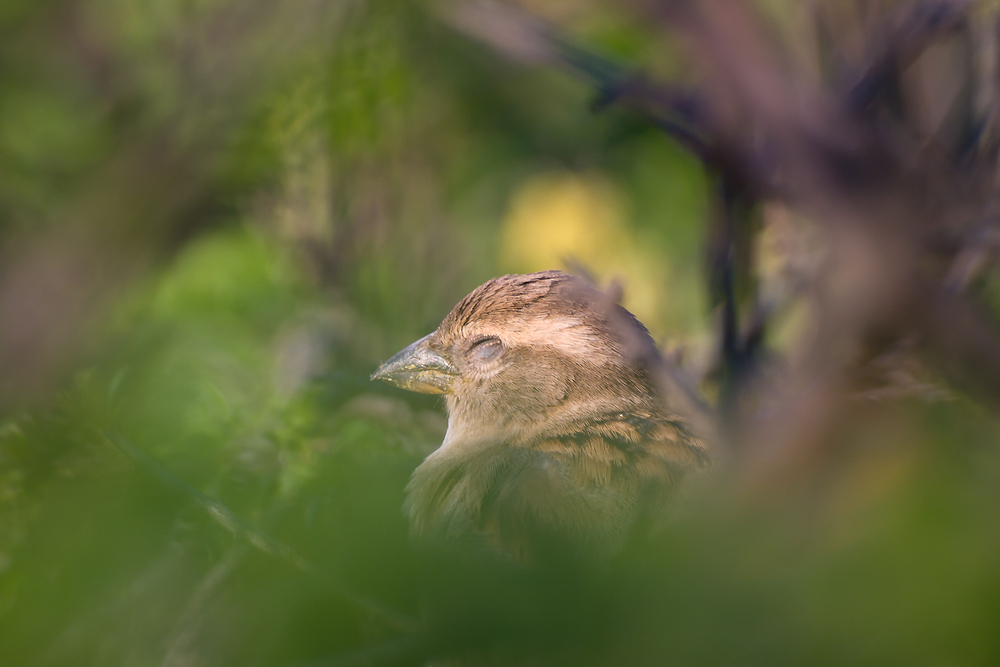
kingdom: Animalia
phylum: Chordata
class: Aves
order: Passeriformes
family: Passeridae
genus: Passer
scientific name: Passer domesticus
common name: House sparrow
